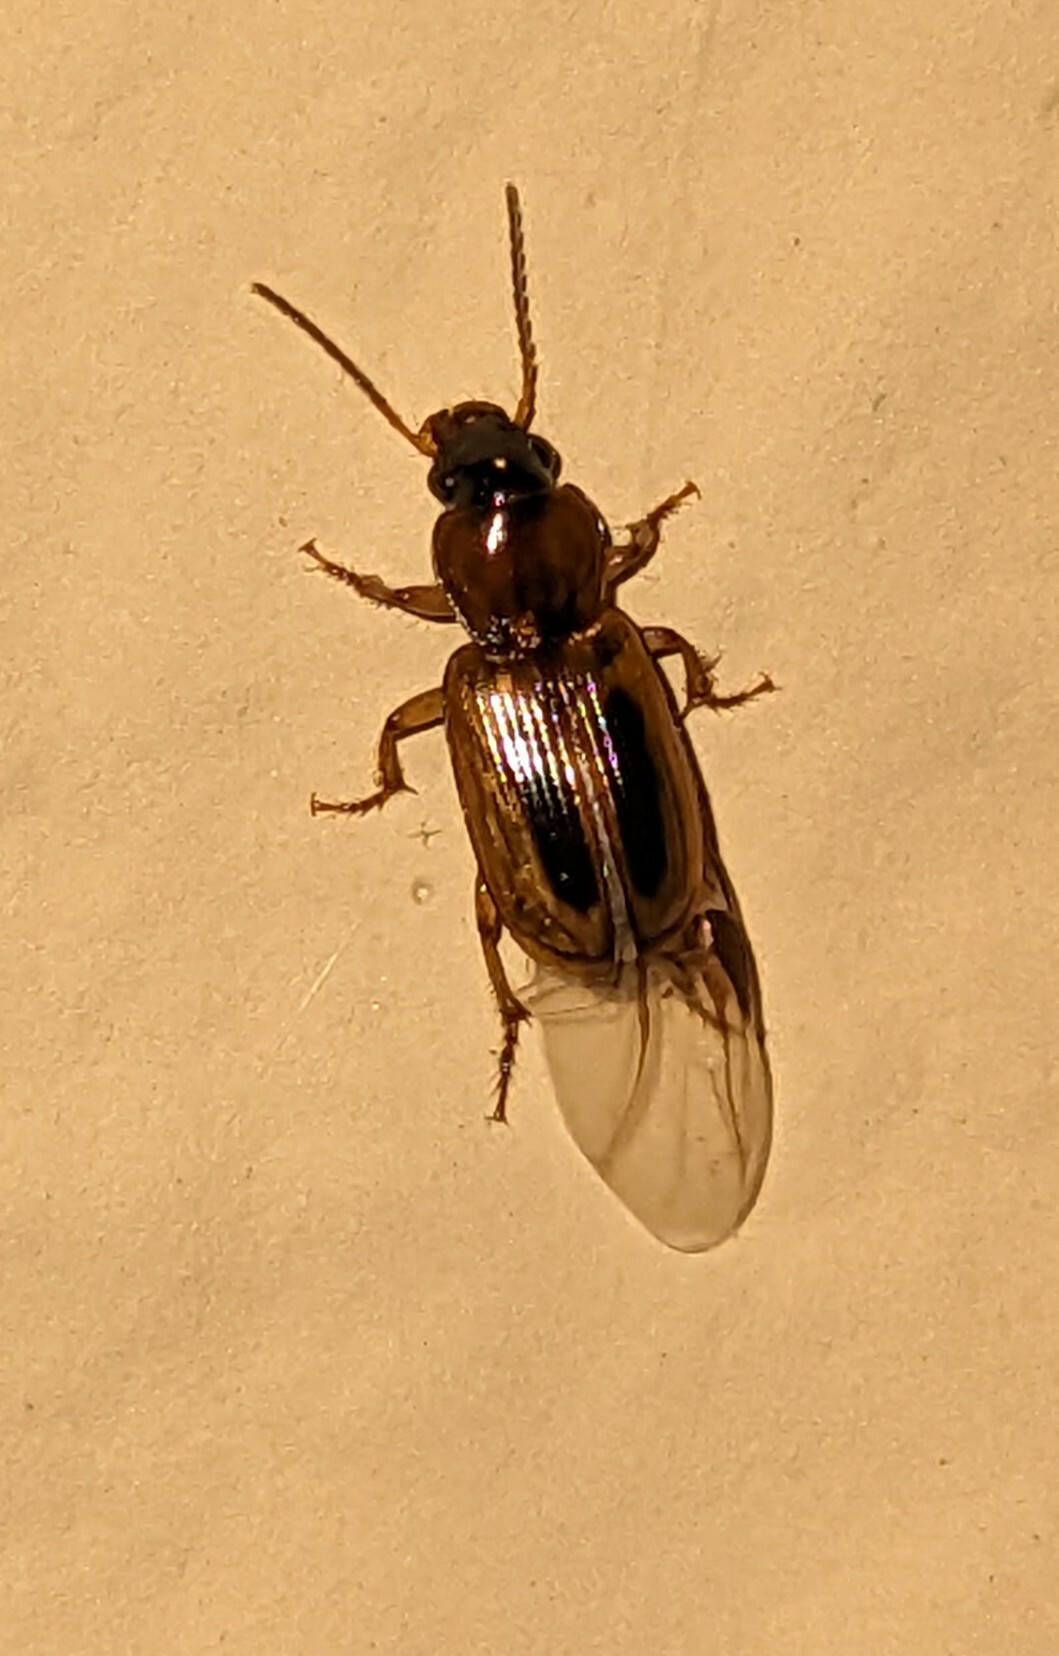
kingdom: Animalia
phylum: Arthropoda
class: Insecta
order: Coleoptera
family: Carabidae
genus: Stenolophus
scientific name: Stenolophus lecontei
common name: Leconte's seedcorn beetle
